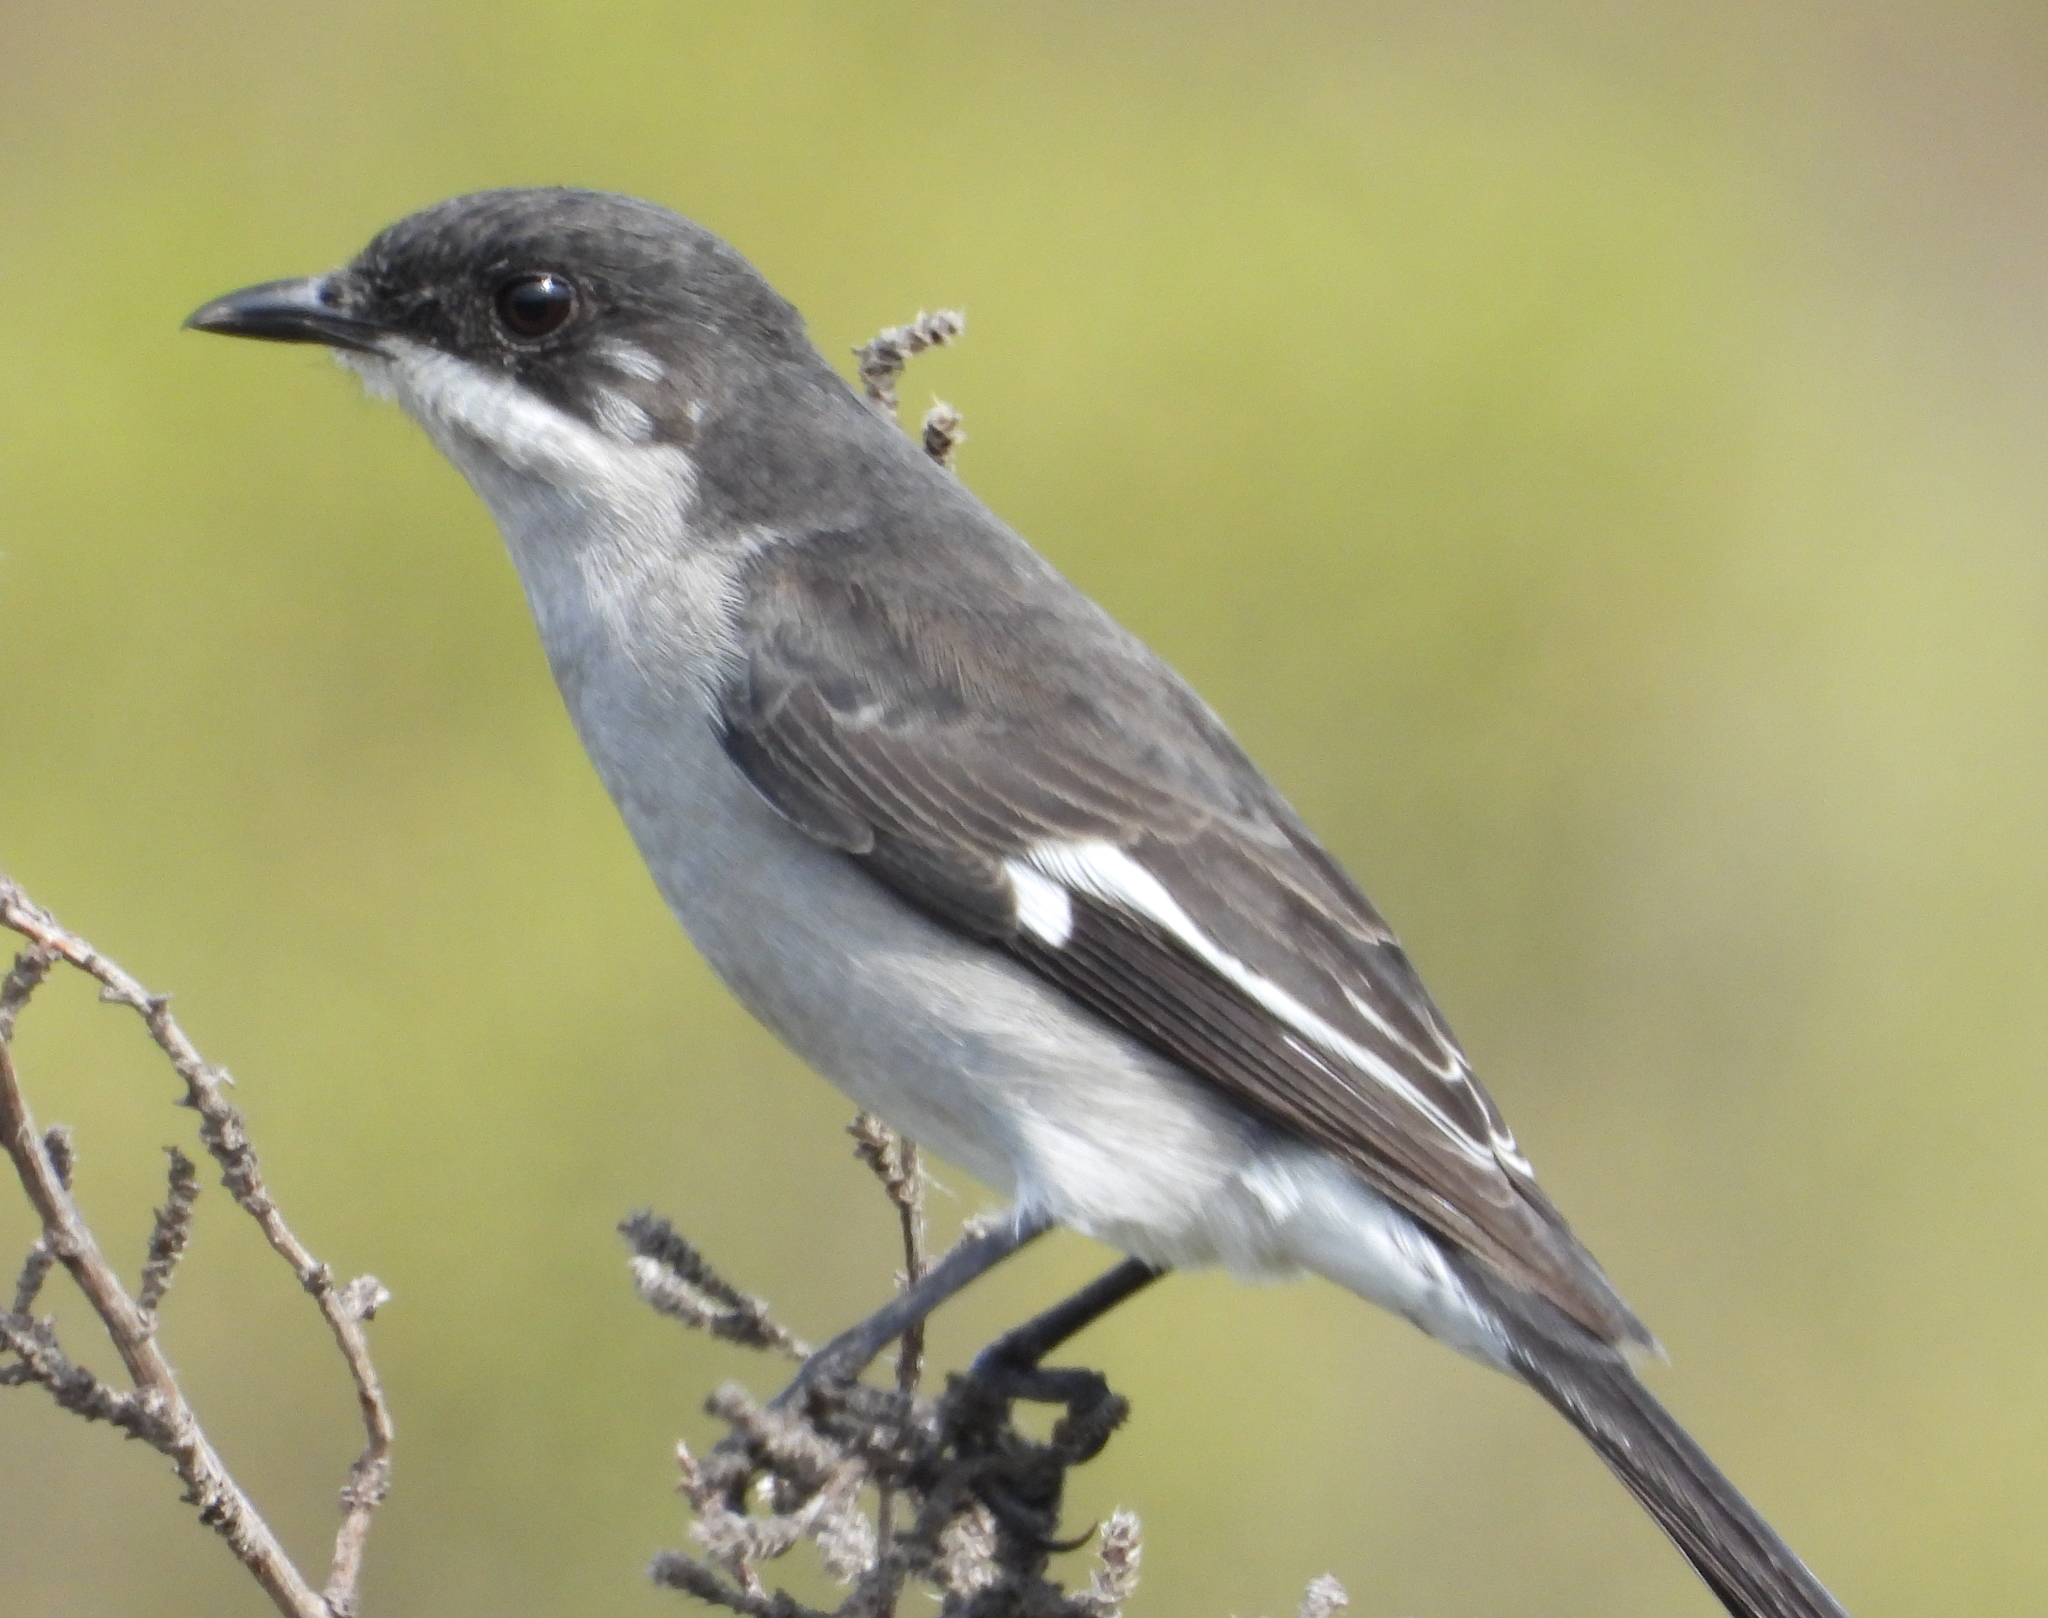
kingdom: Animalia
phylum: Chordata
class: Aves
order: Passeriformes
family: Muscicapidae
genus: Sigelus
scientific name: Sigelus silens
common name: Fiscal flycatcher
